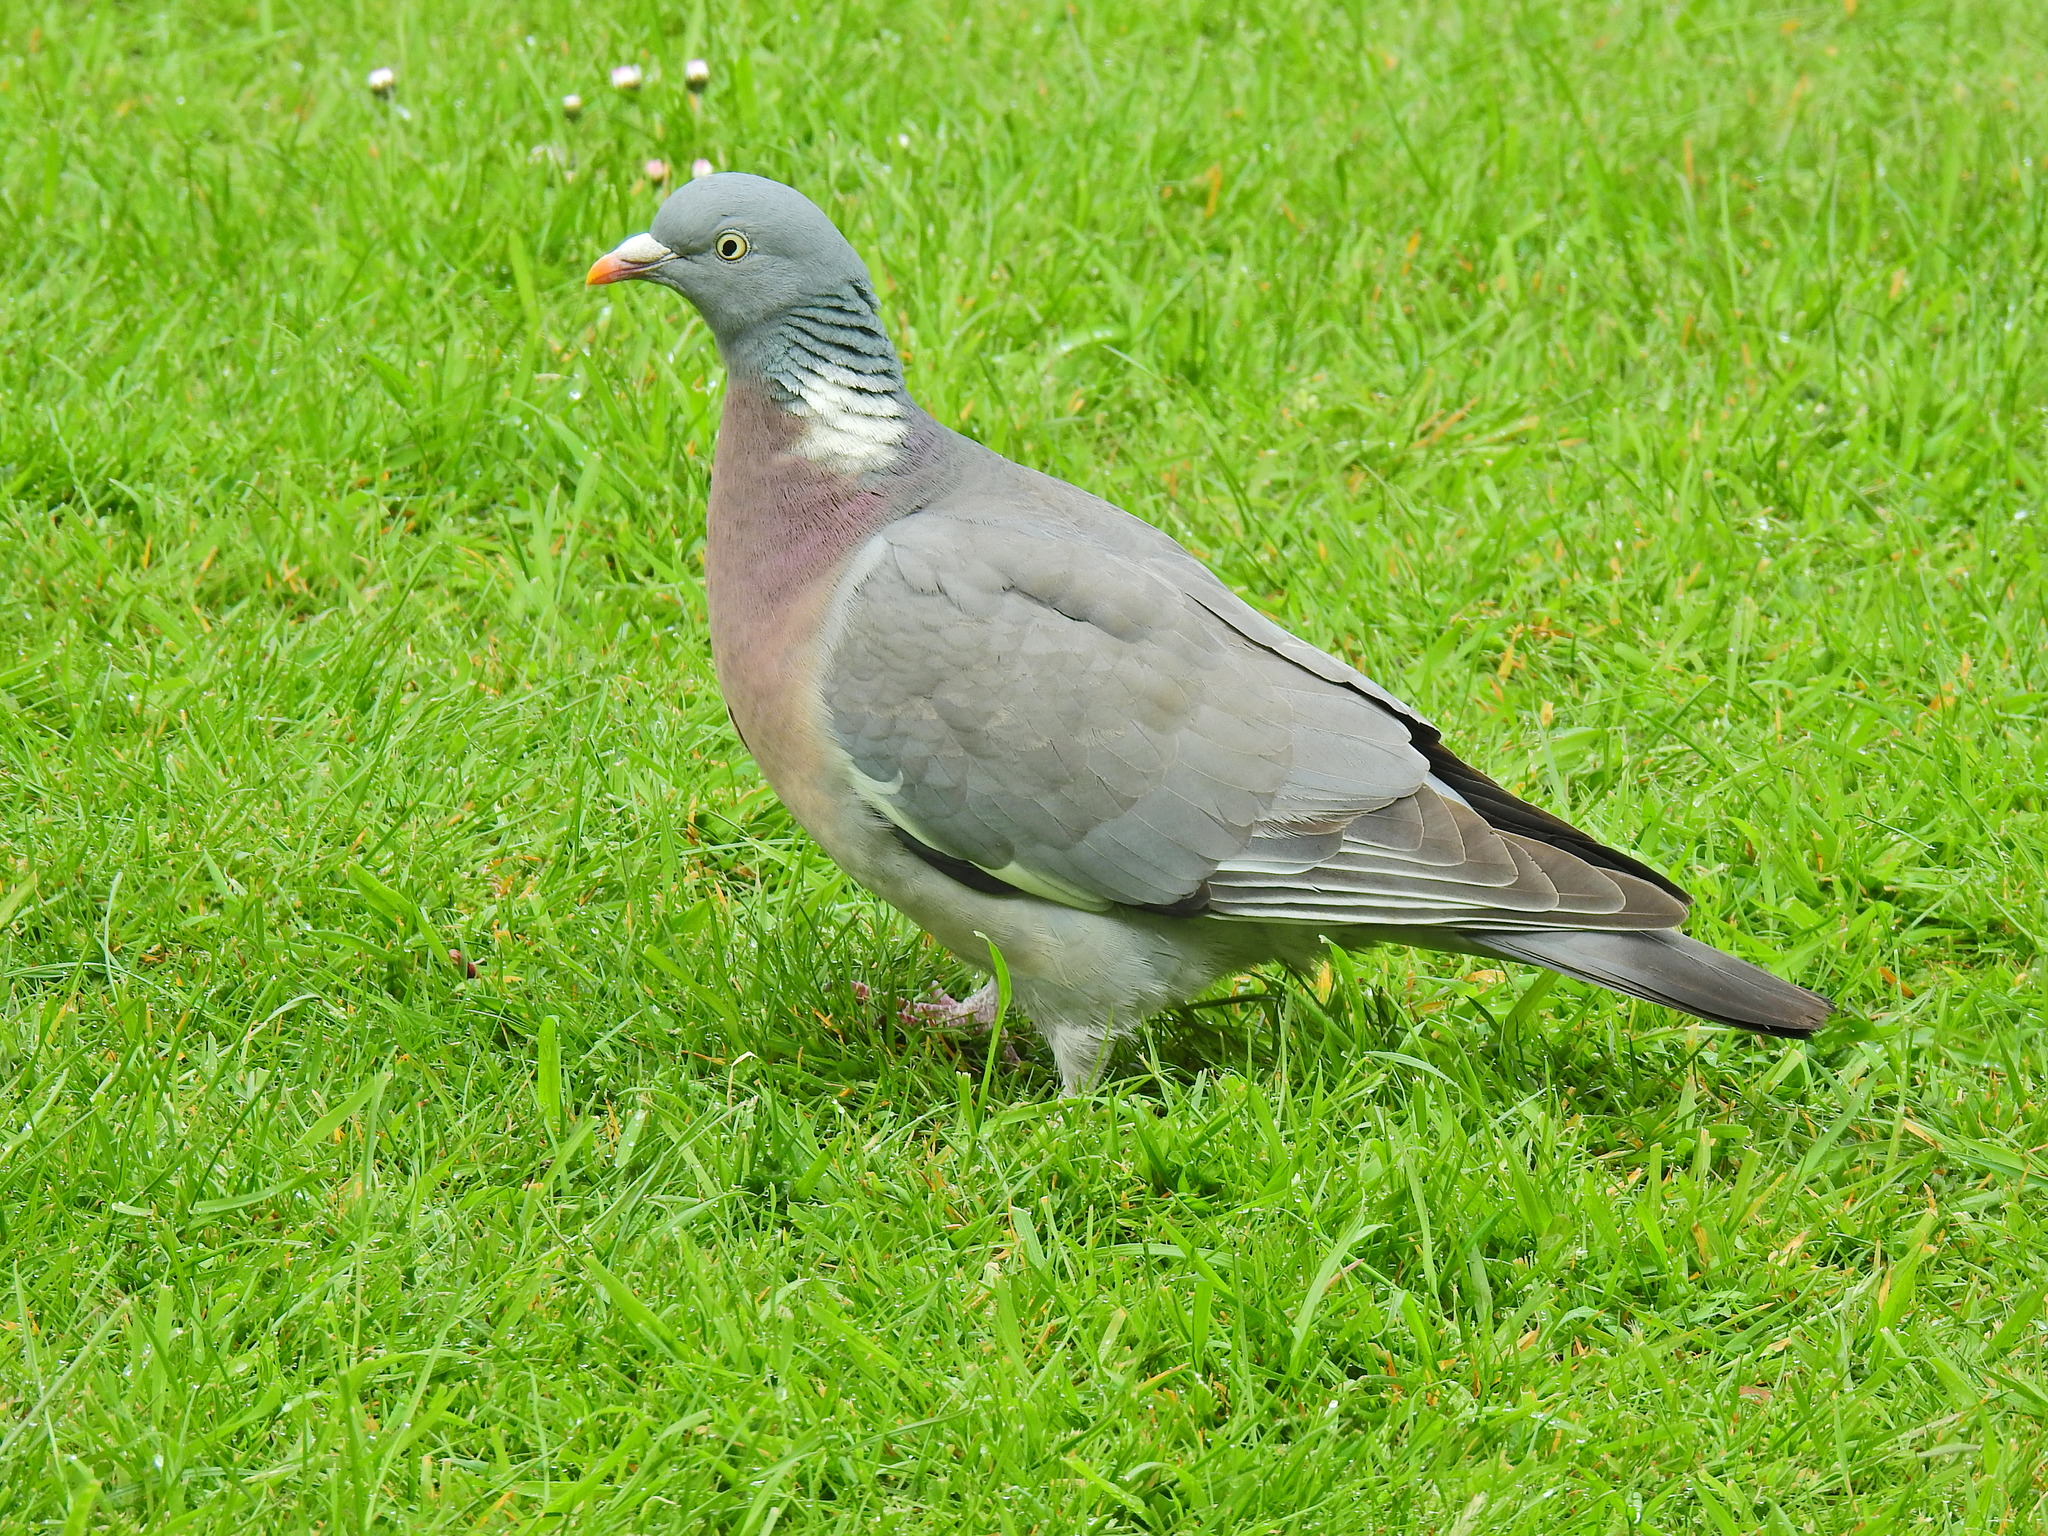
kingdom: Animalia
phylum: Chordata
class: Aves
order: Columbiformes
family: Columbidae
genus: Columba
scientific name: Columba palumbus
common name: Common wood pigeon
